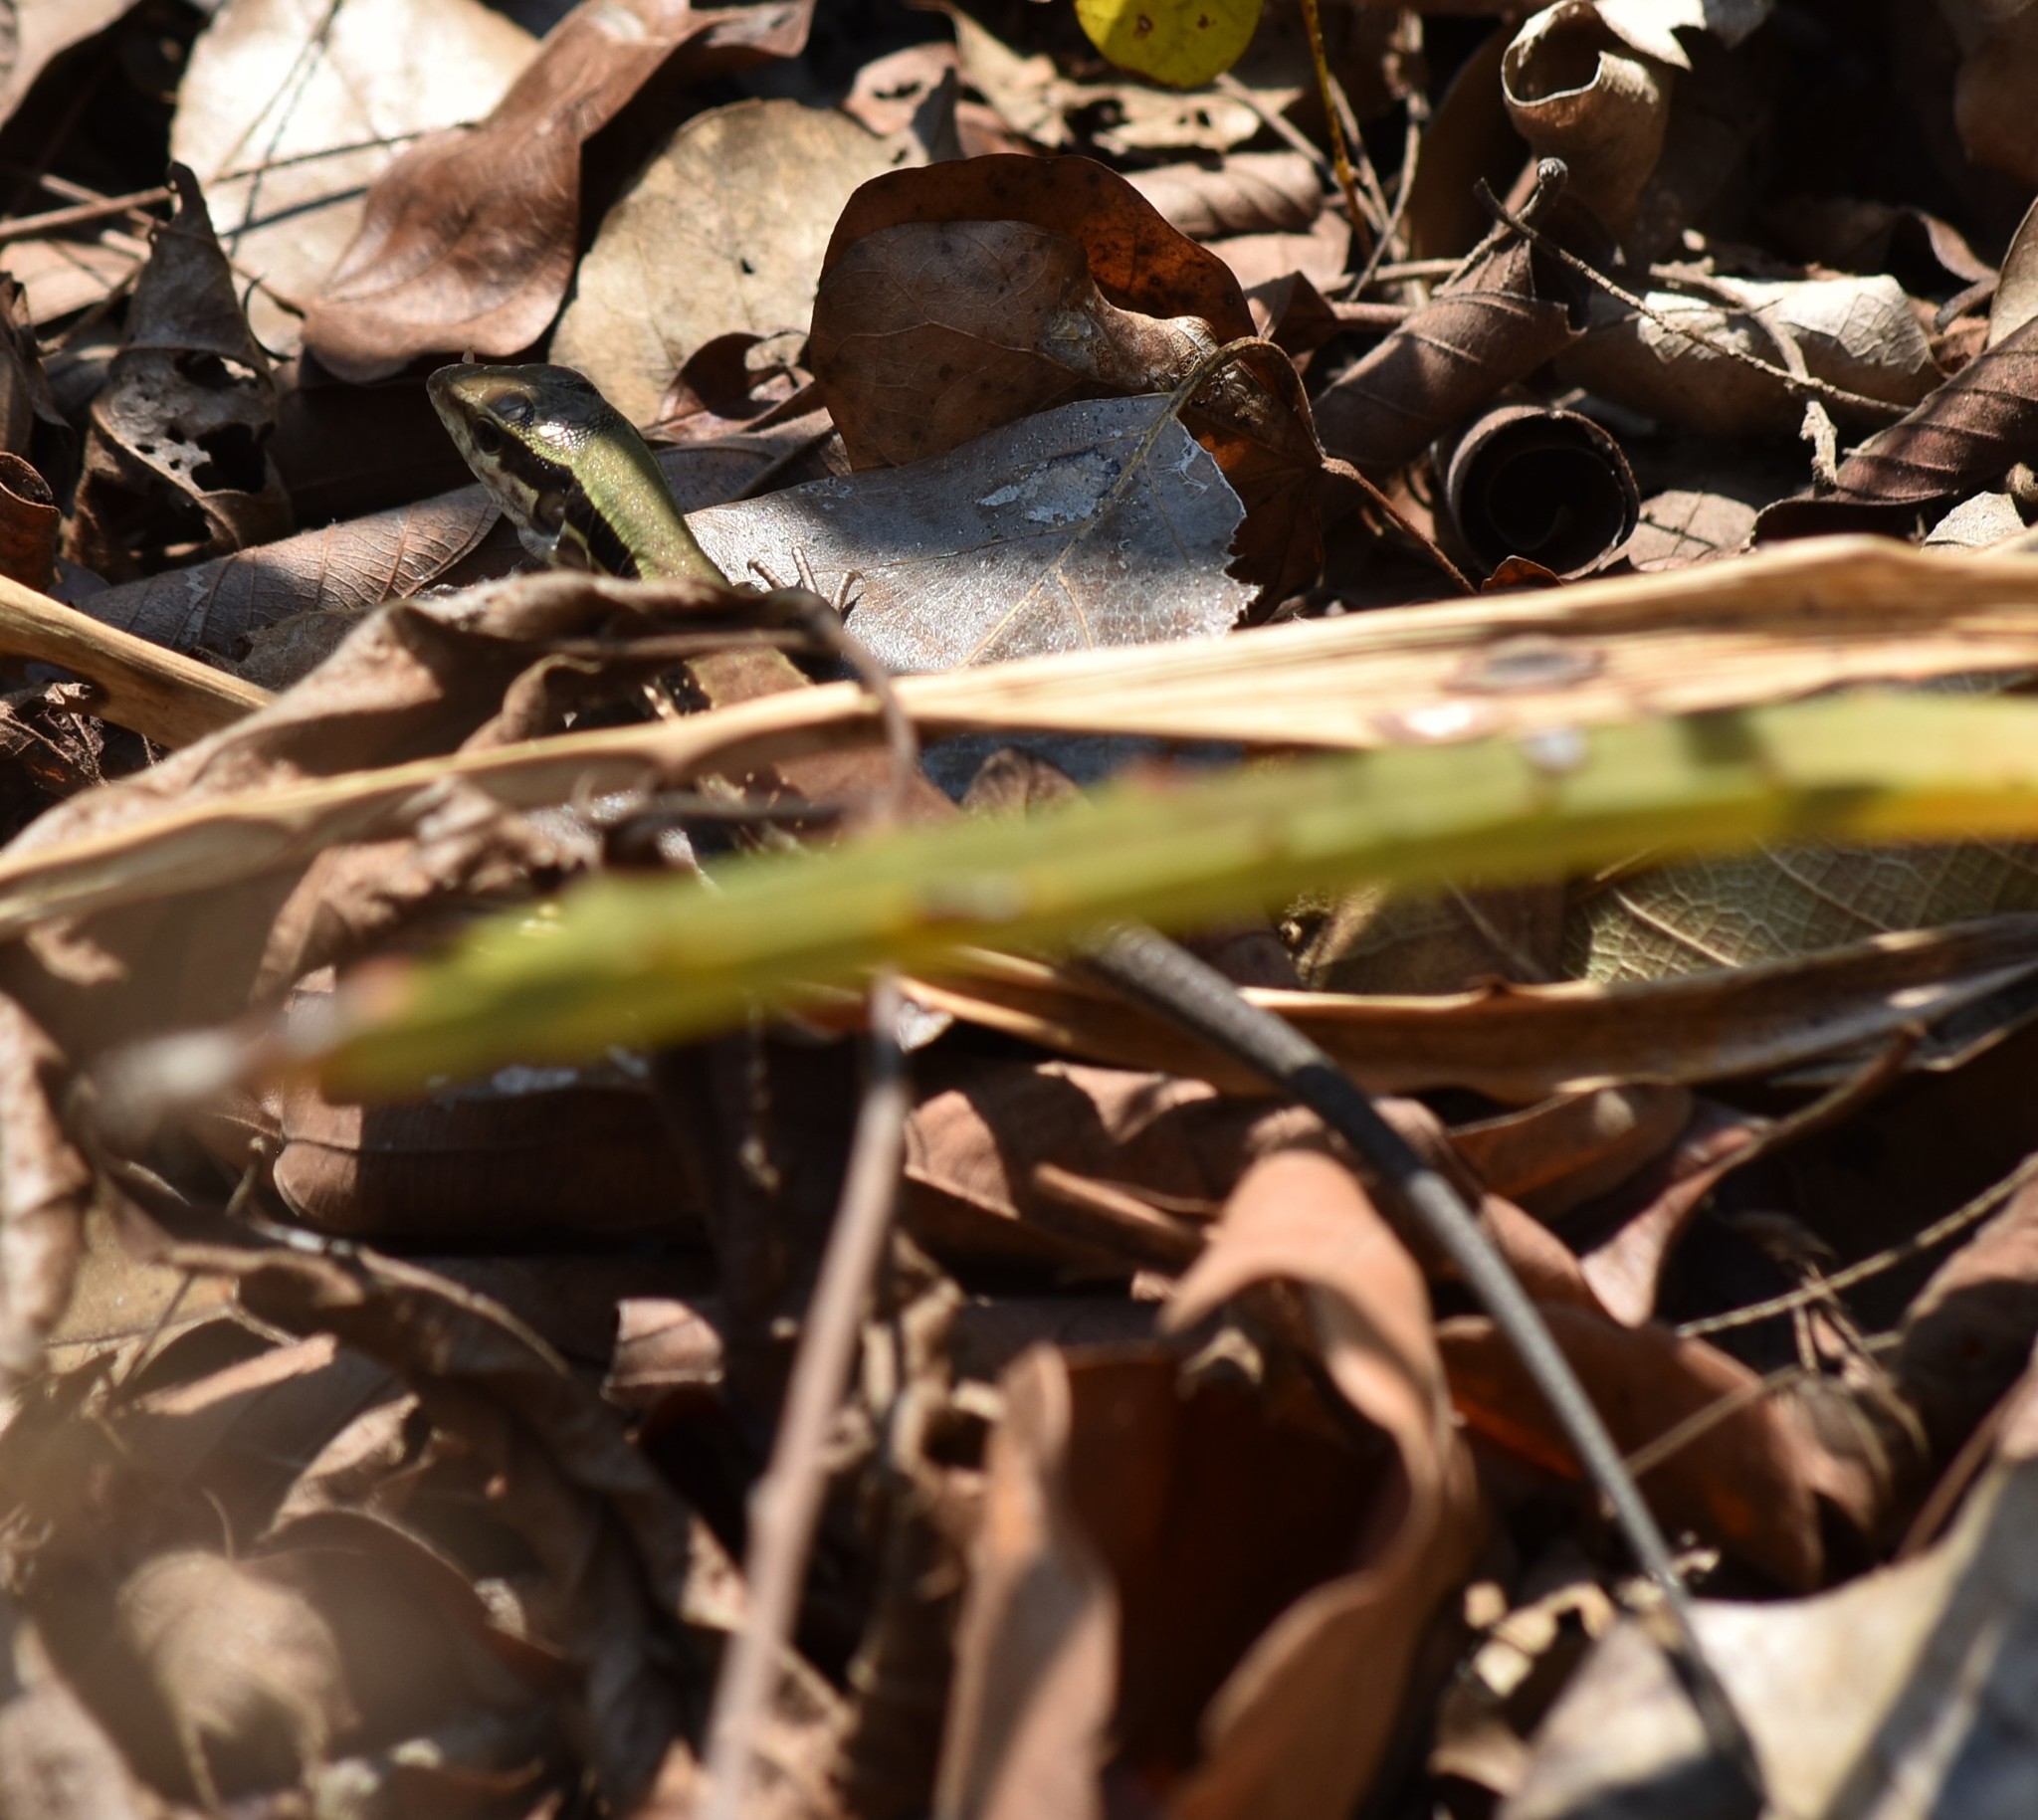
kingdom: Animalia
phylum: Chordata
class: Squamata
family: Teiidae
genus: Ameiva
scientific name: Ameiva ameiva
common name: Giant ameiva
